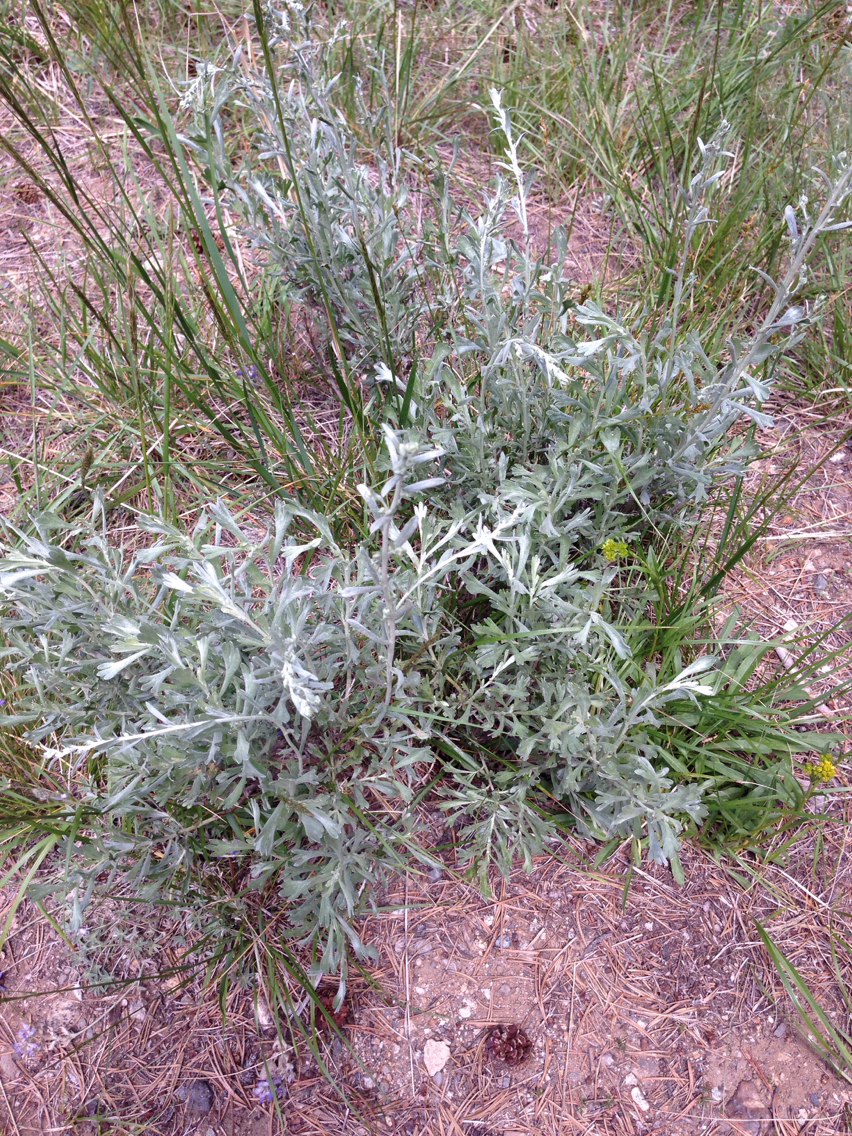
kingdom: Plantae
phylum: Tracheophyta
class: Magnoliopsida
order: Asterales
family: Asteraceae
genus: Artemisia
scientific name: Artemisia rothrockii
